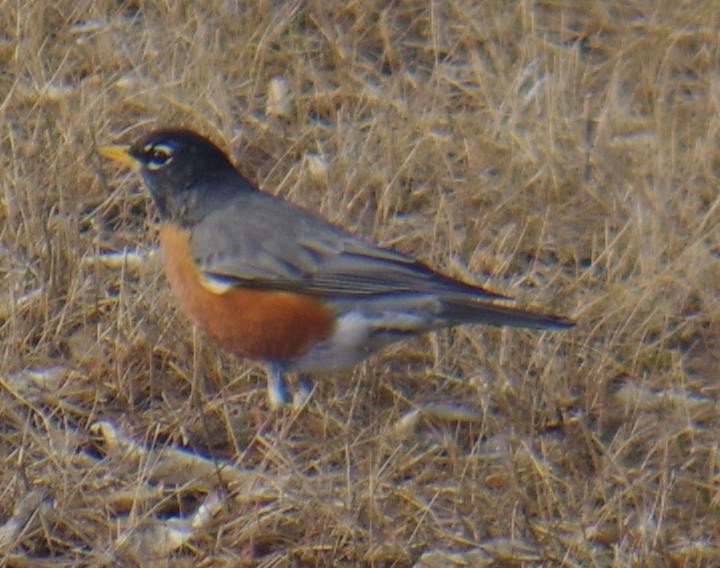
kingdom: Animalia
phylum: Chordata
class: Aves
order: Passeriformes
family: Turdidae
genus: Turdus
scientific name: Turdus migratorius
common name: American robin
